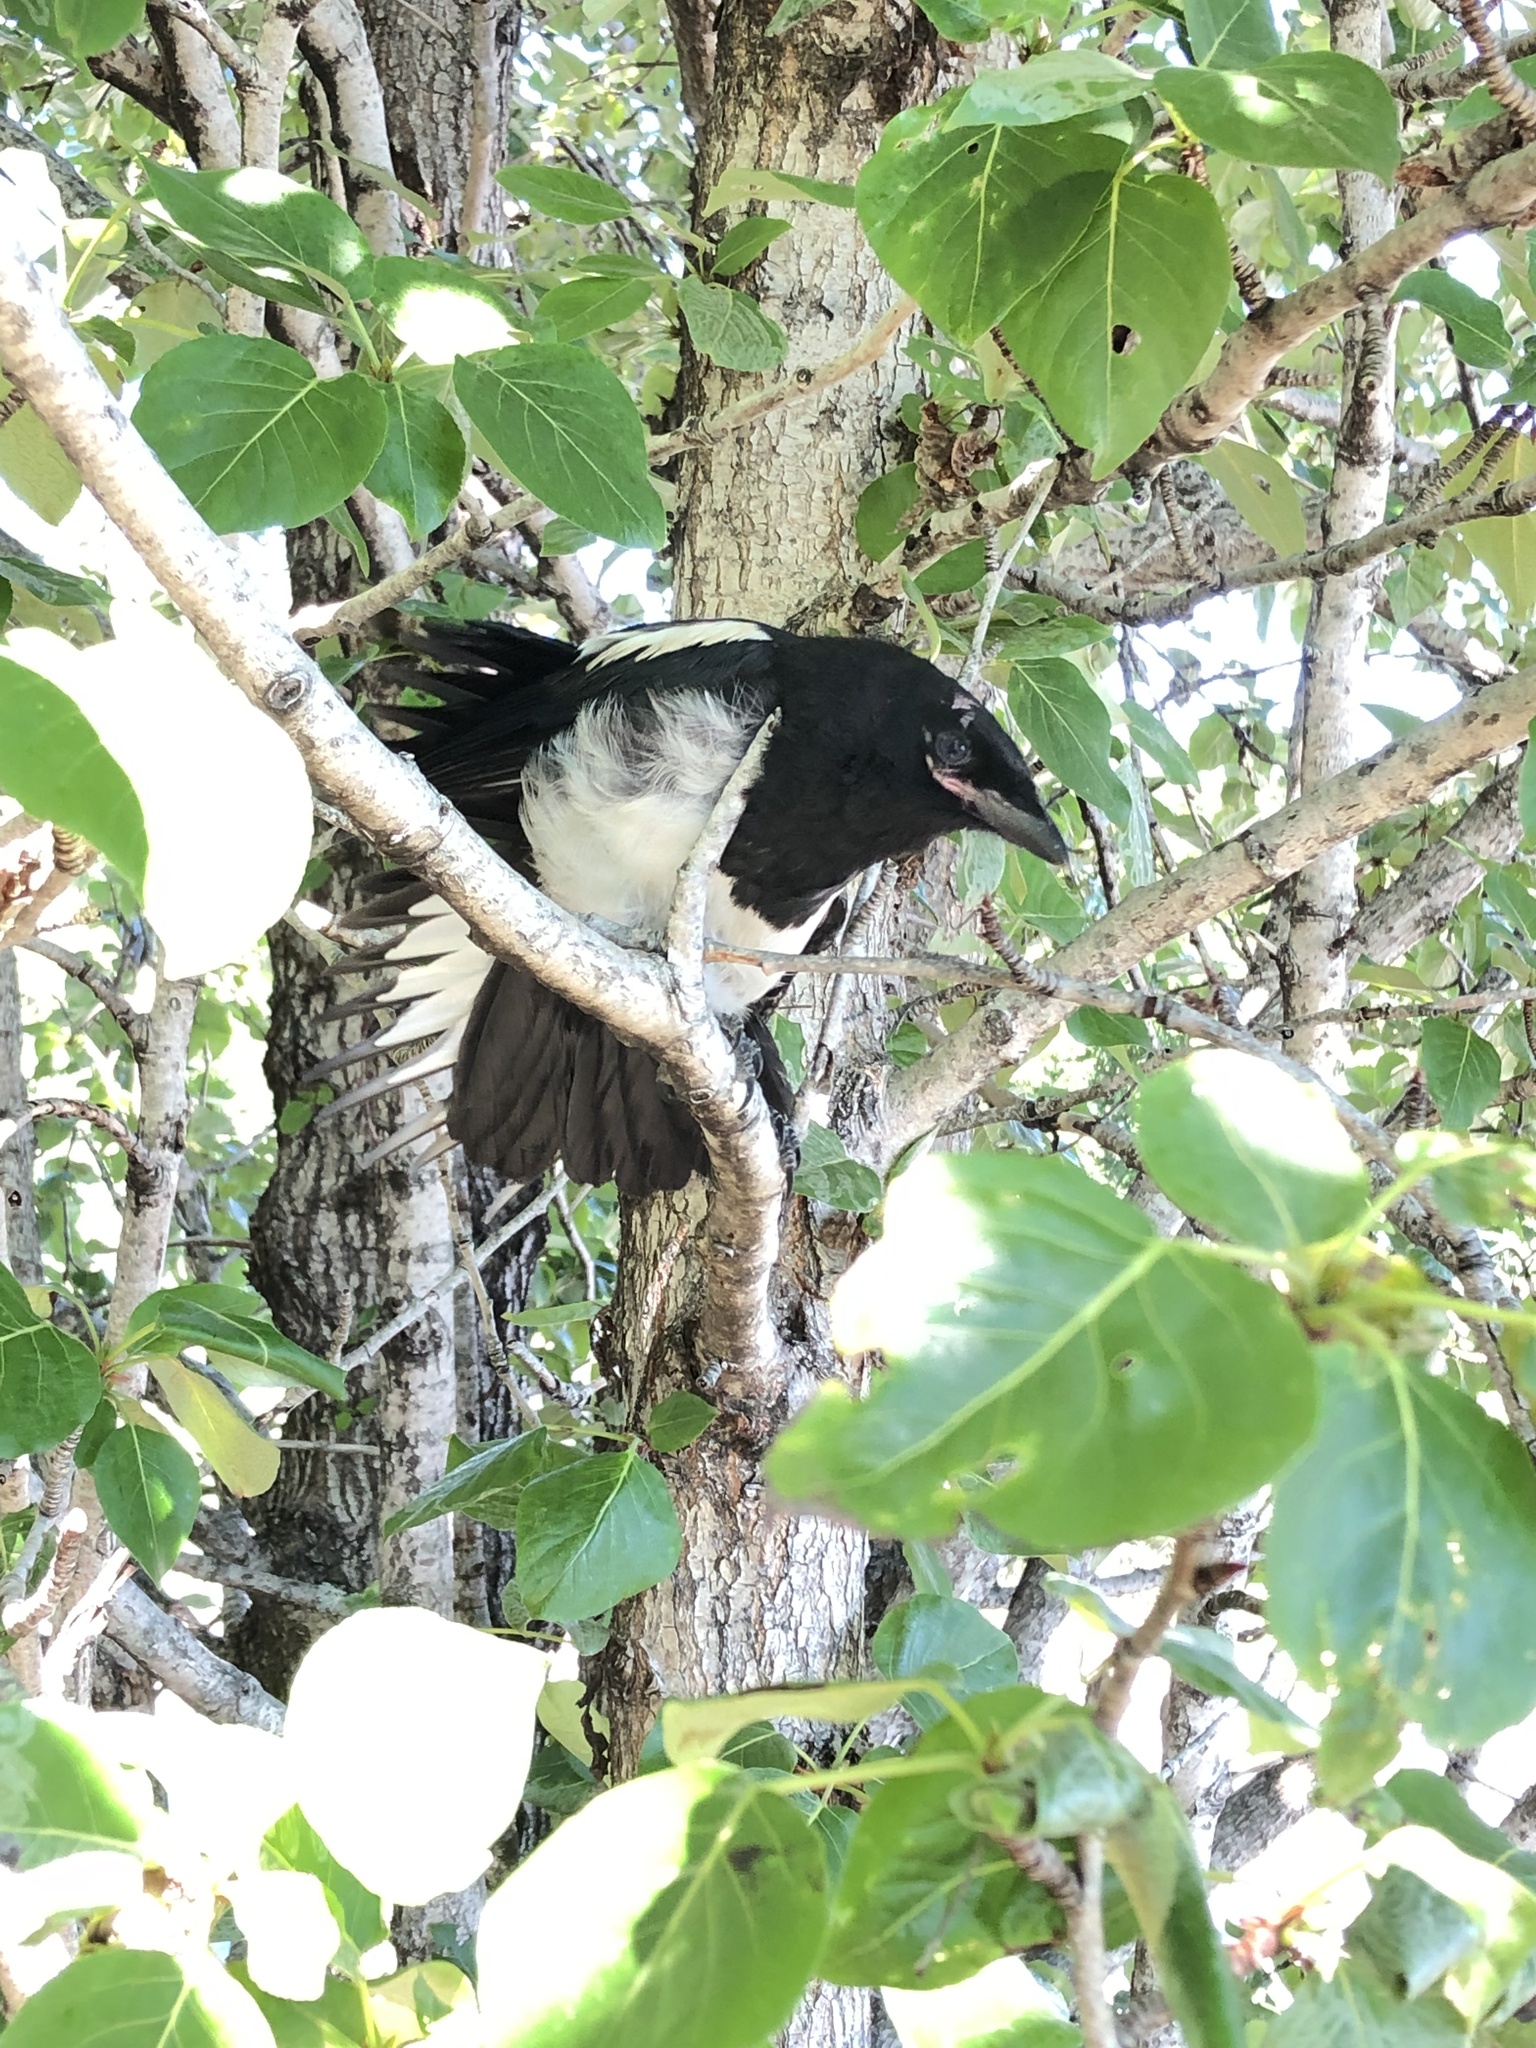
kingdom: Animalia
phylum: Chordata
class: Aves
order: Passeriformes
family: Corvidae
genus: Pica
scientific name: Pica hudsonia
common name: Black-billed magpie
